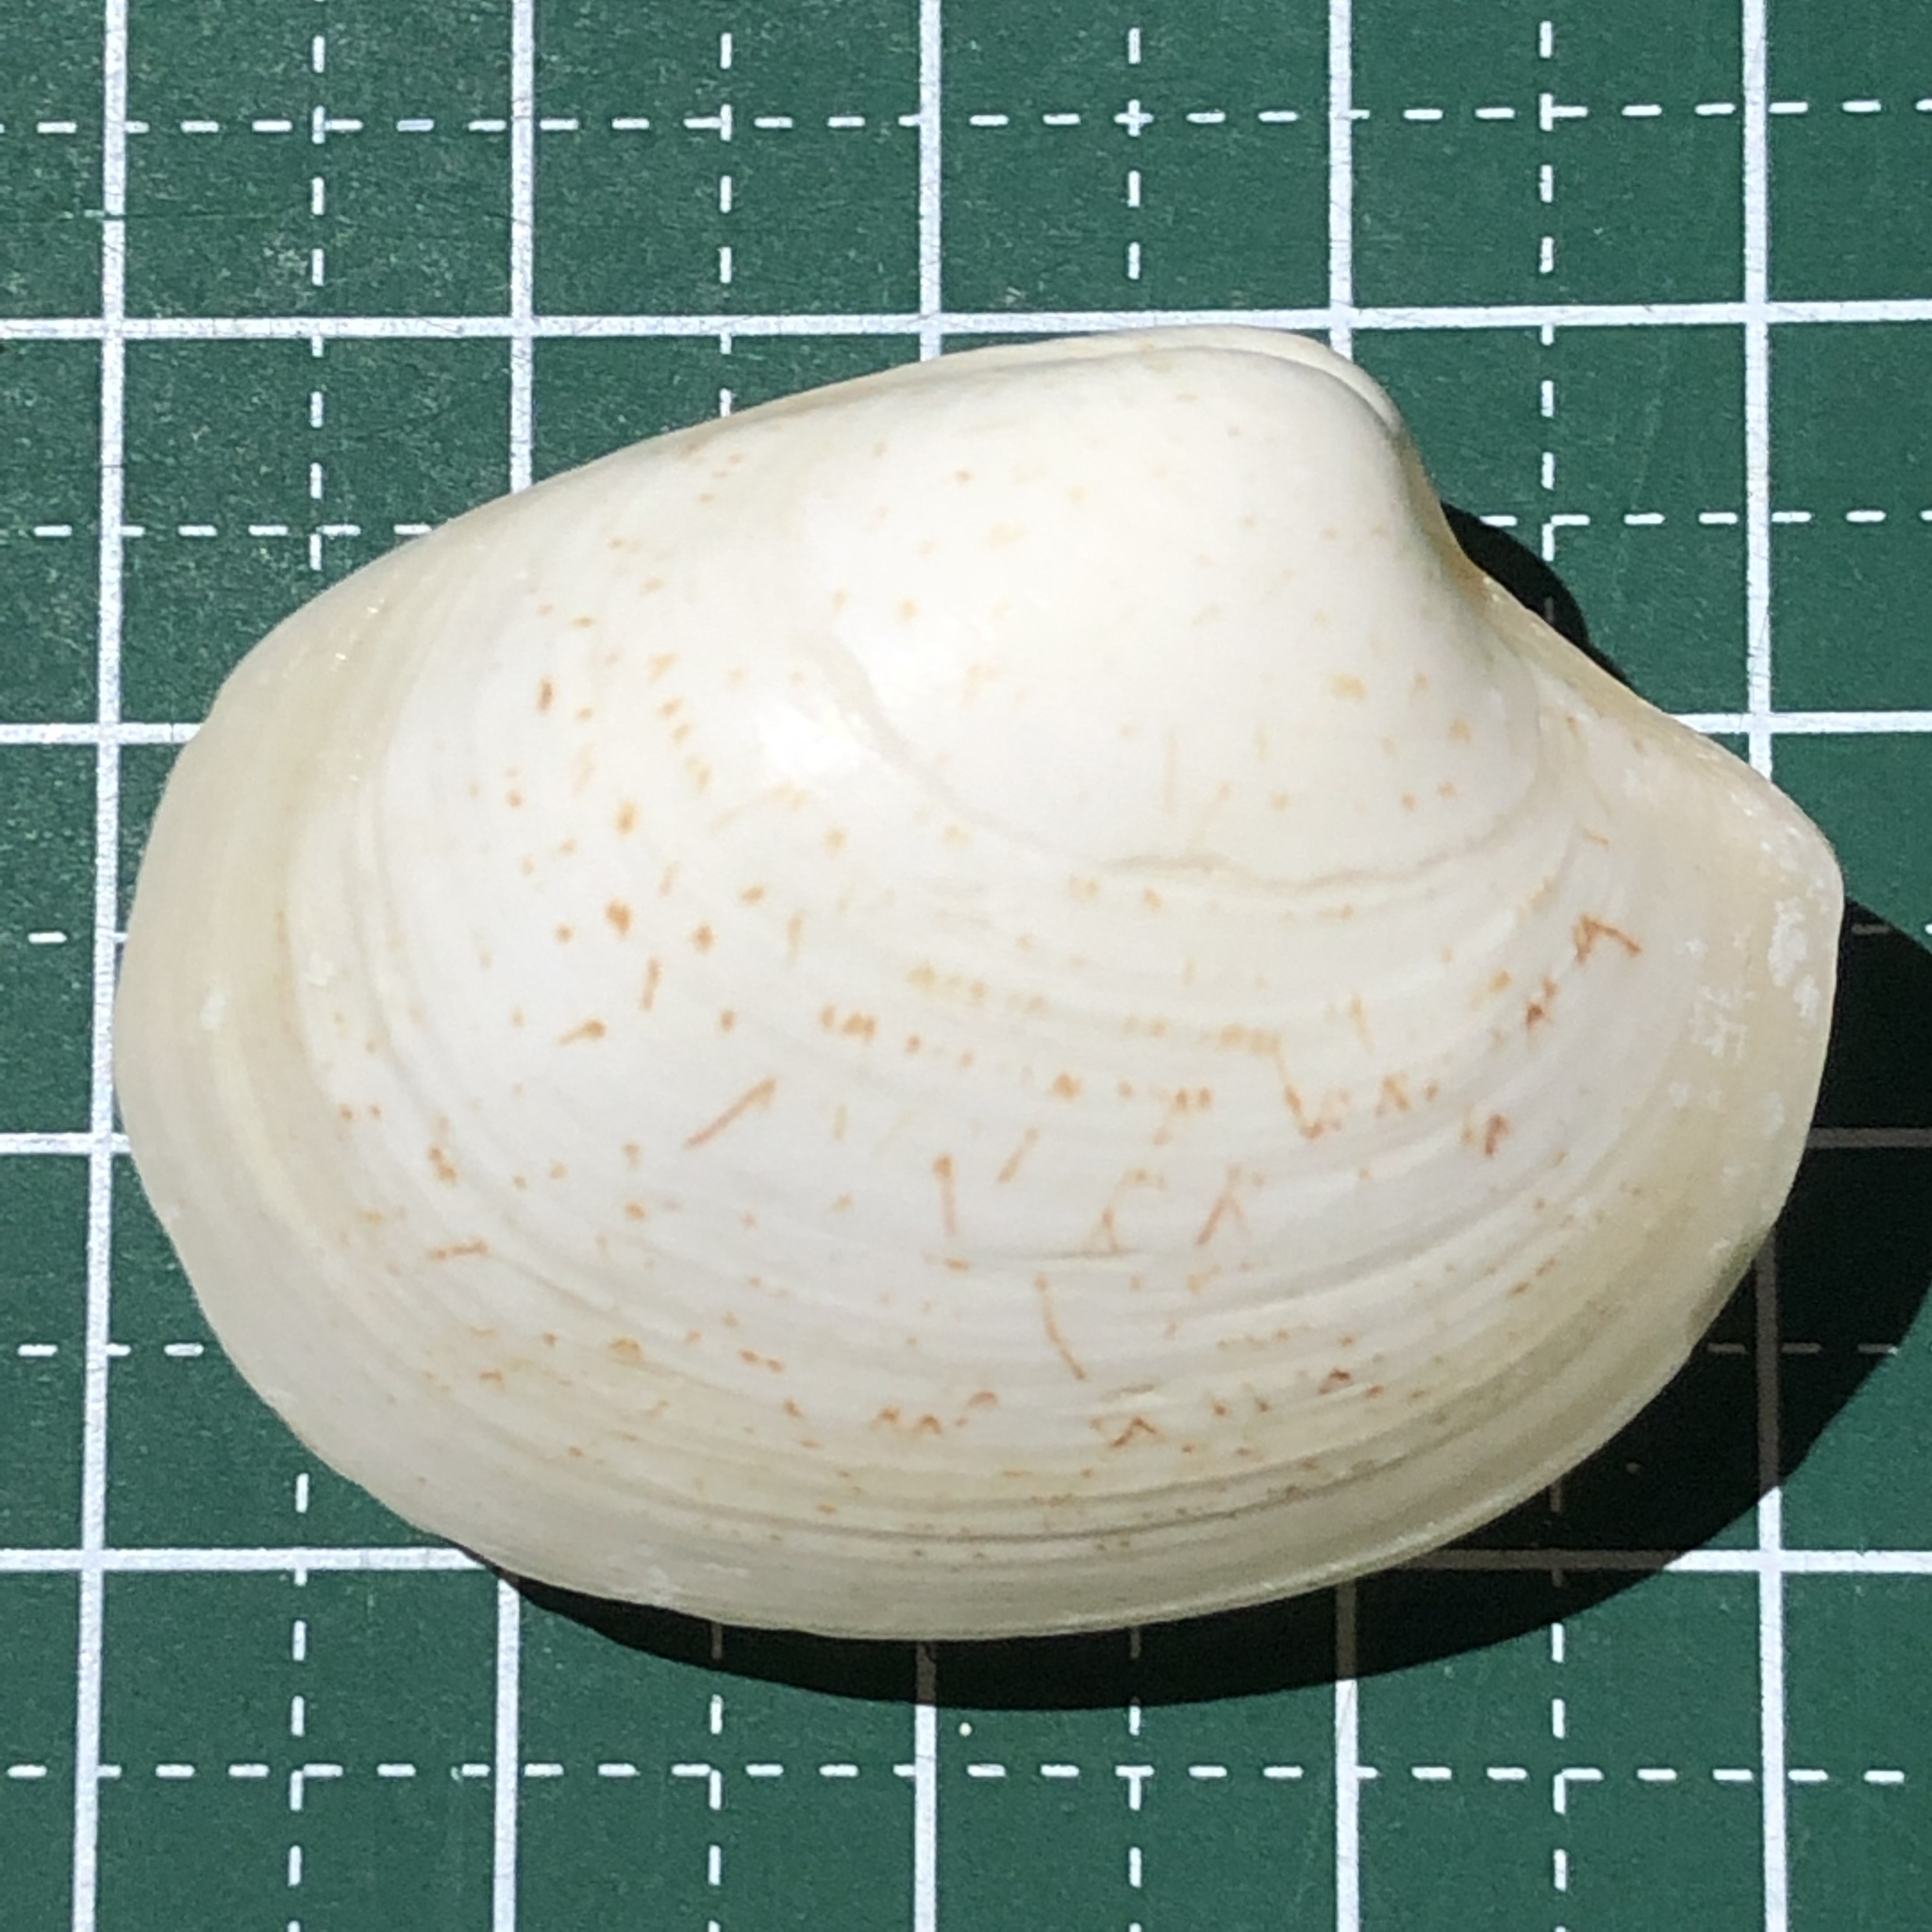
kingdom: Animalia
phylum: Mollusca
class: Bivalvia
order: Venerida
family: Veneridae
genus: Pitar
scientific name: Pitar prora
